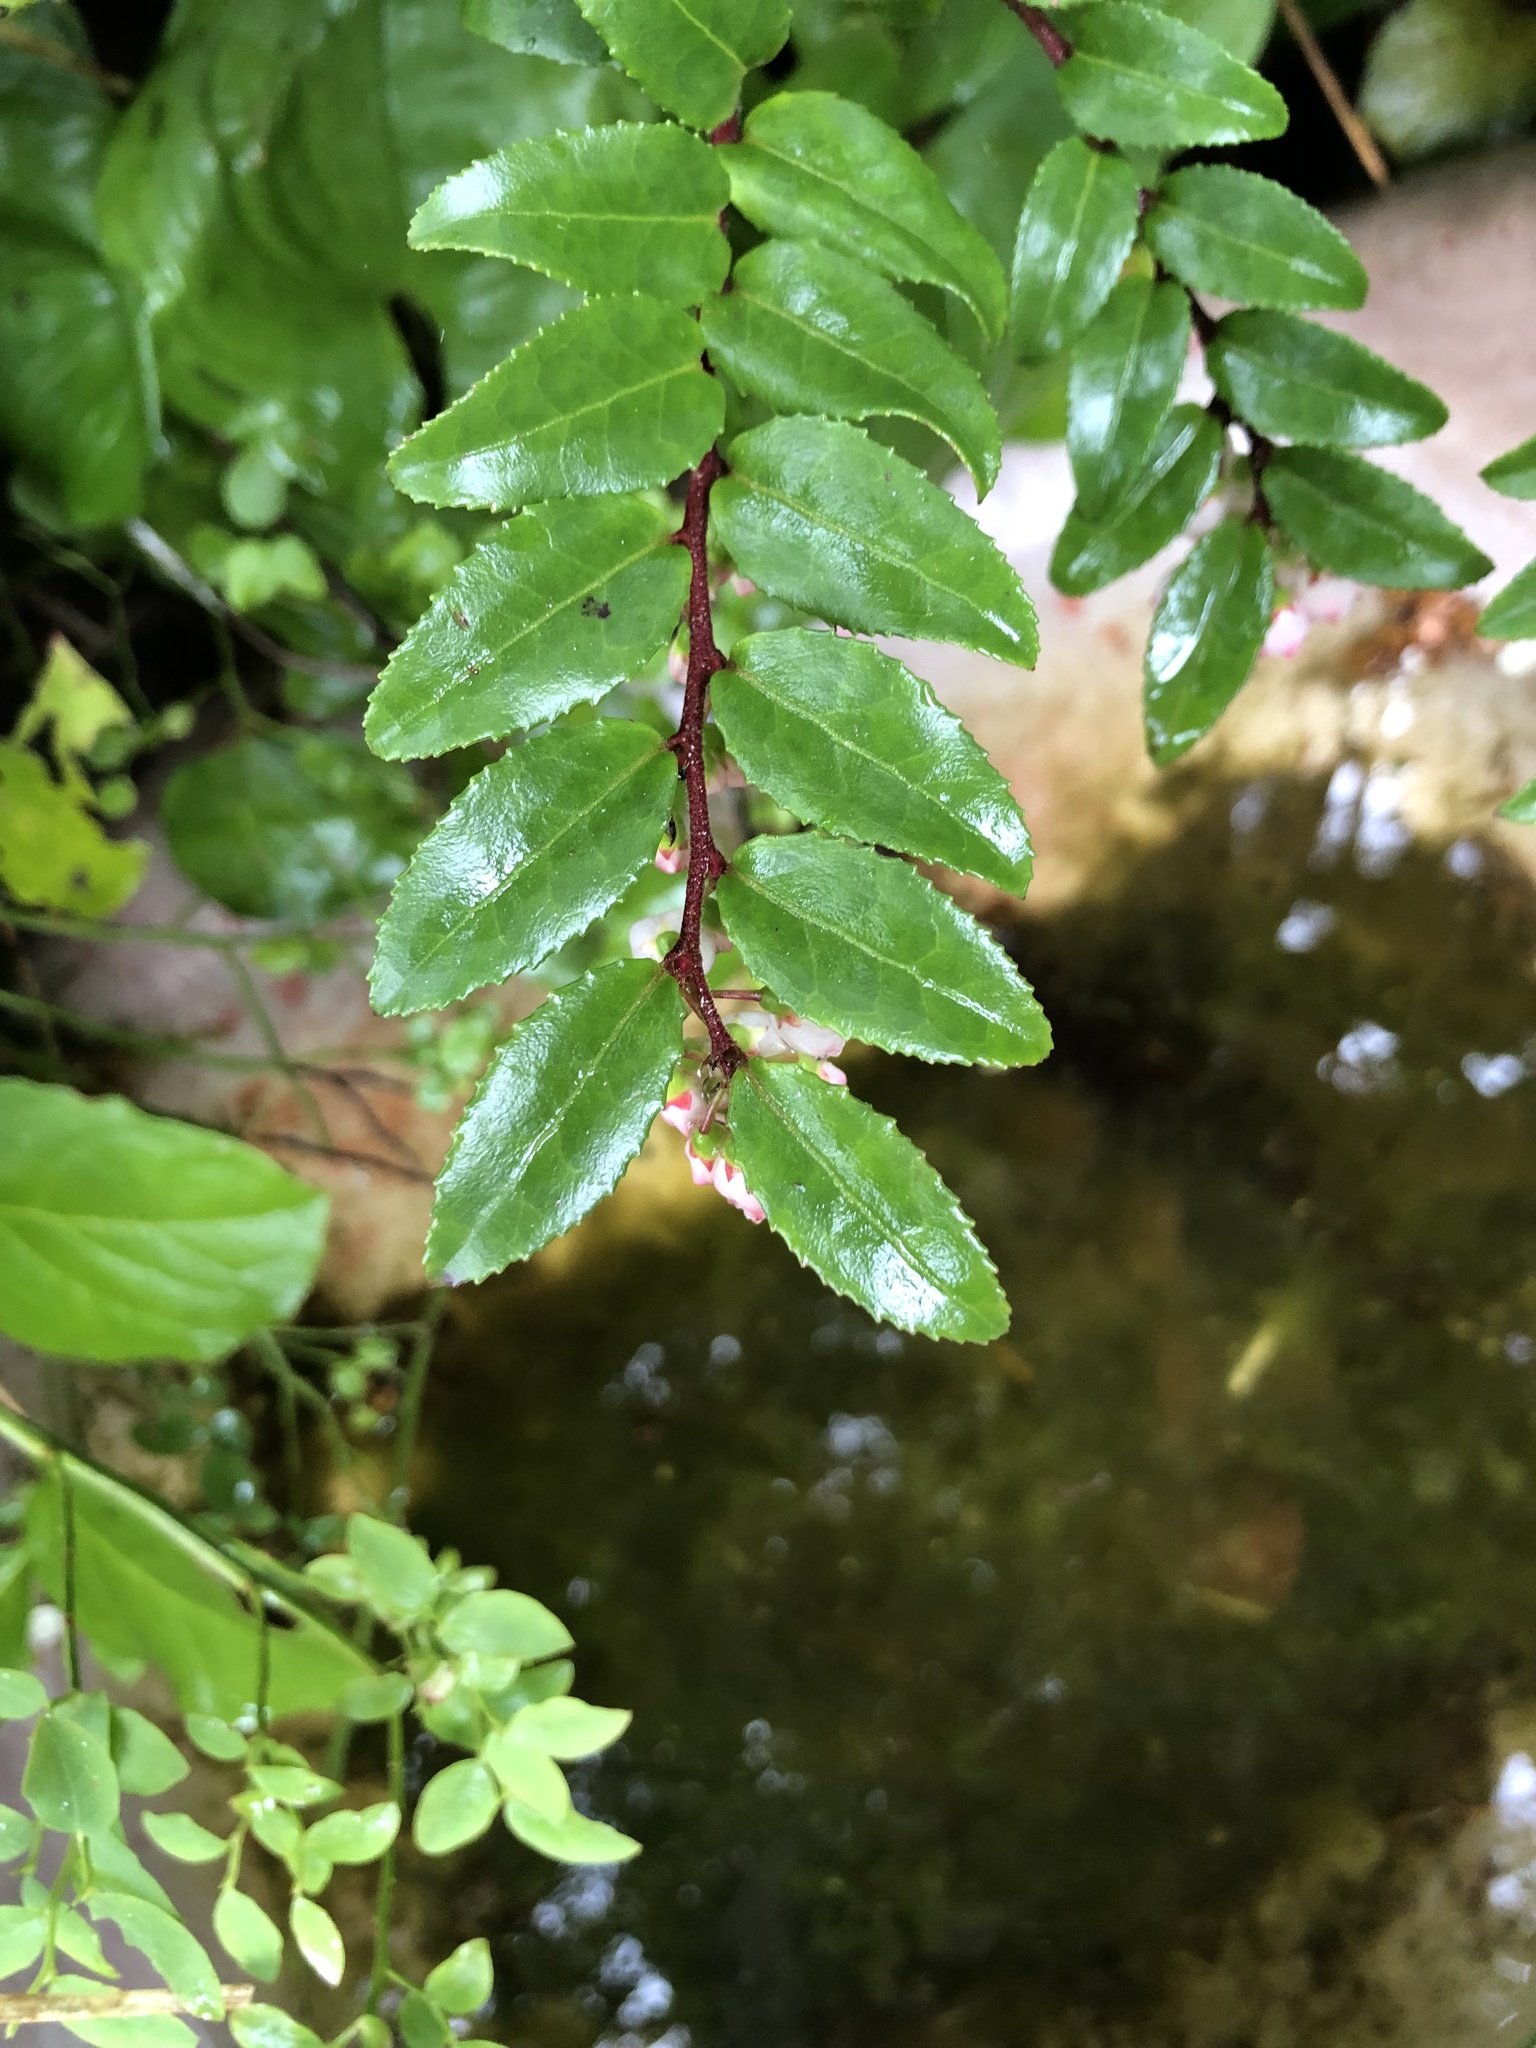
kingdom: Plantae
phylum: Tracheophyta
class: Magnoliopsida
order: Ericales
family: Ericaceae
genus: Vaccinium
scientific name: Vaccinium ovatum
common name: California-huckleberry
